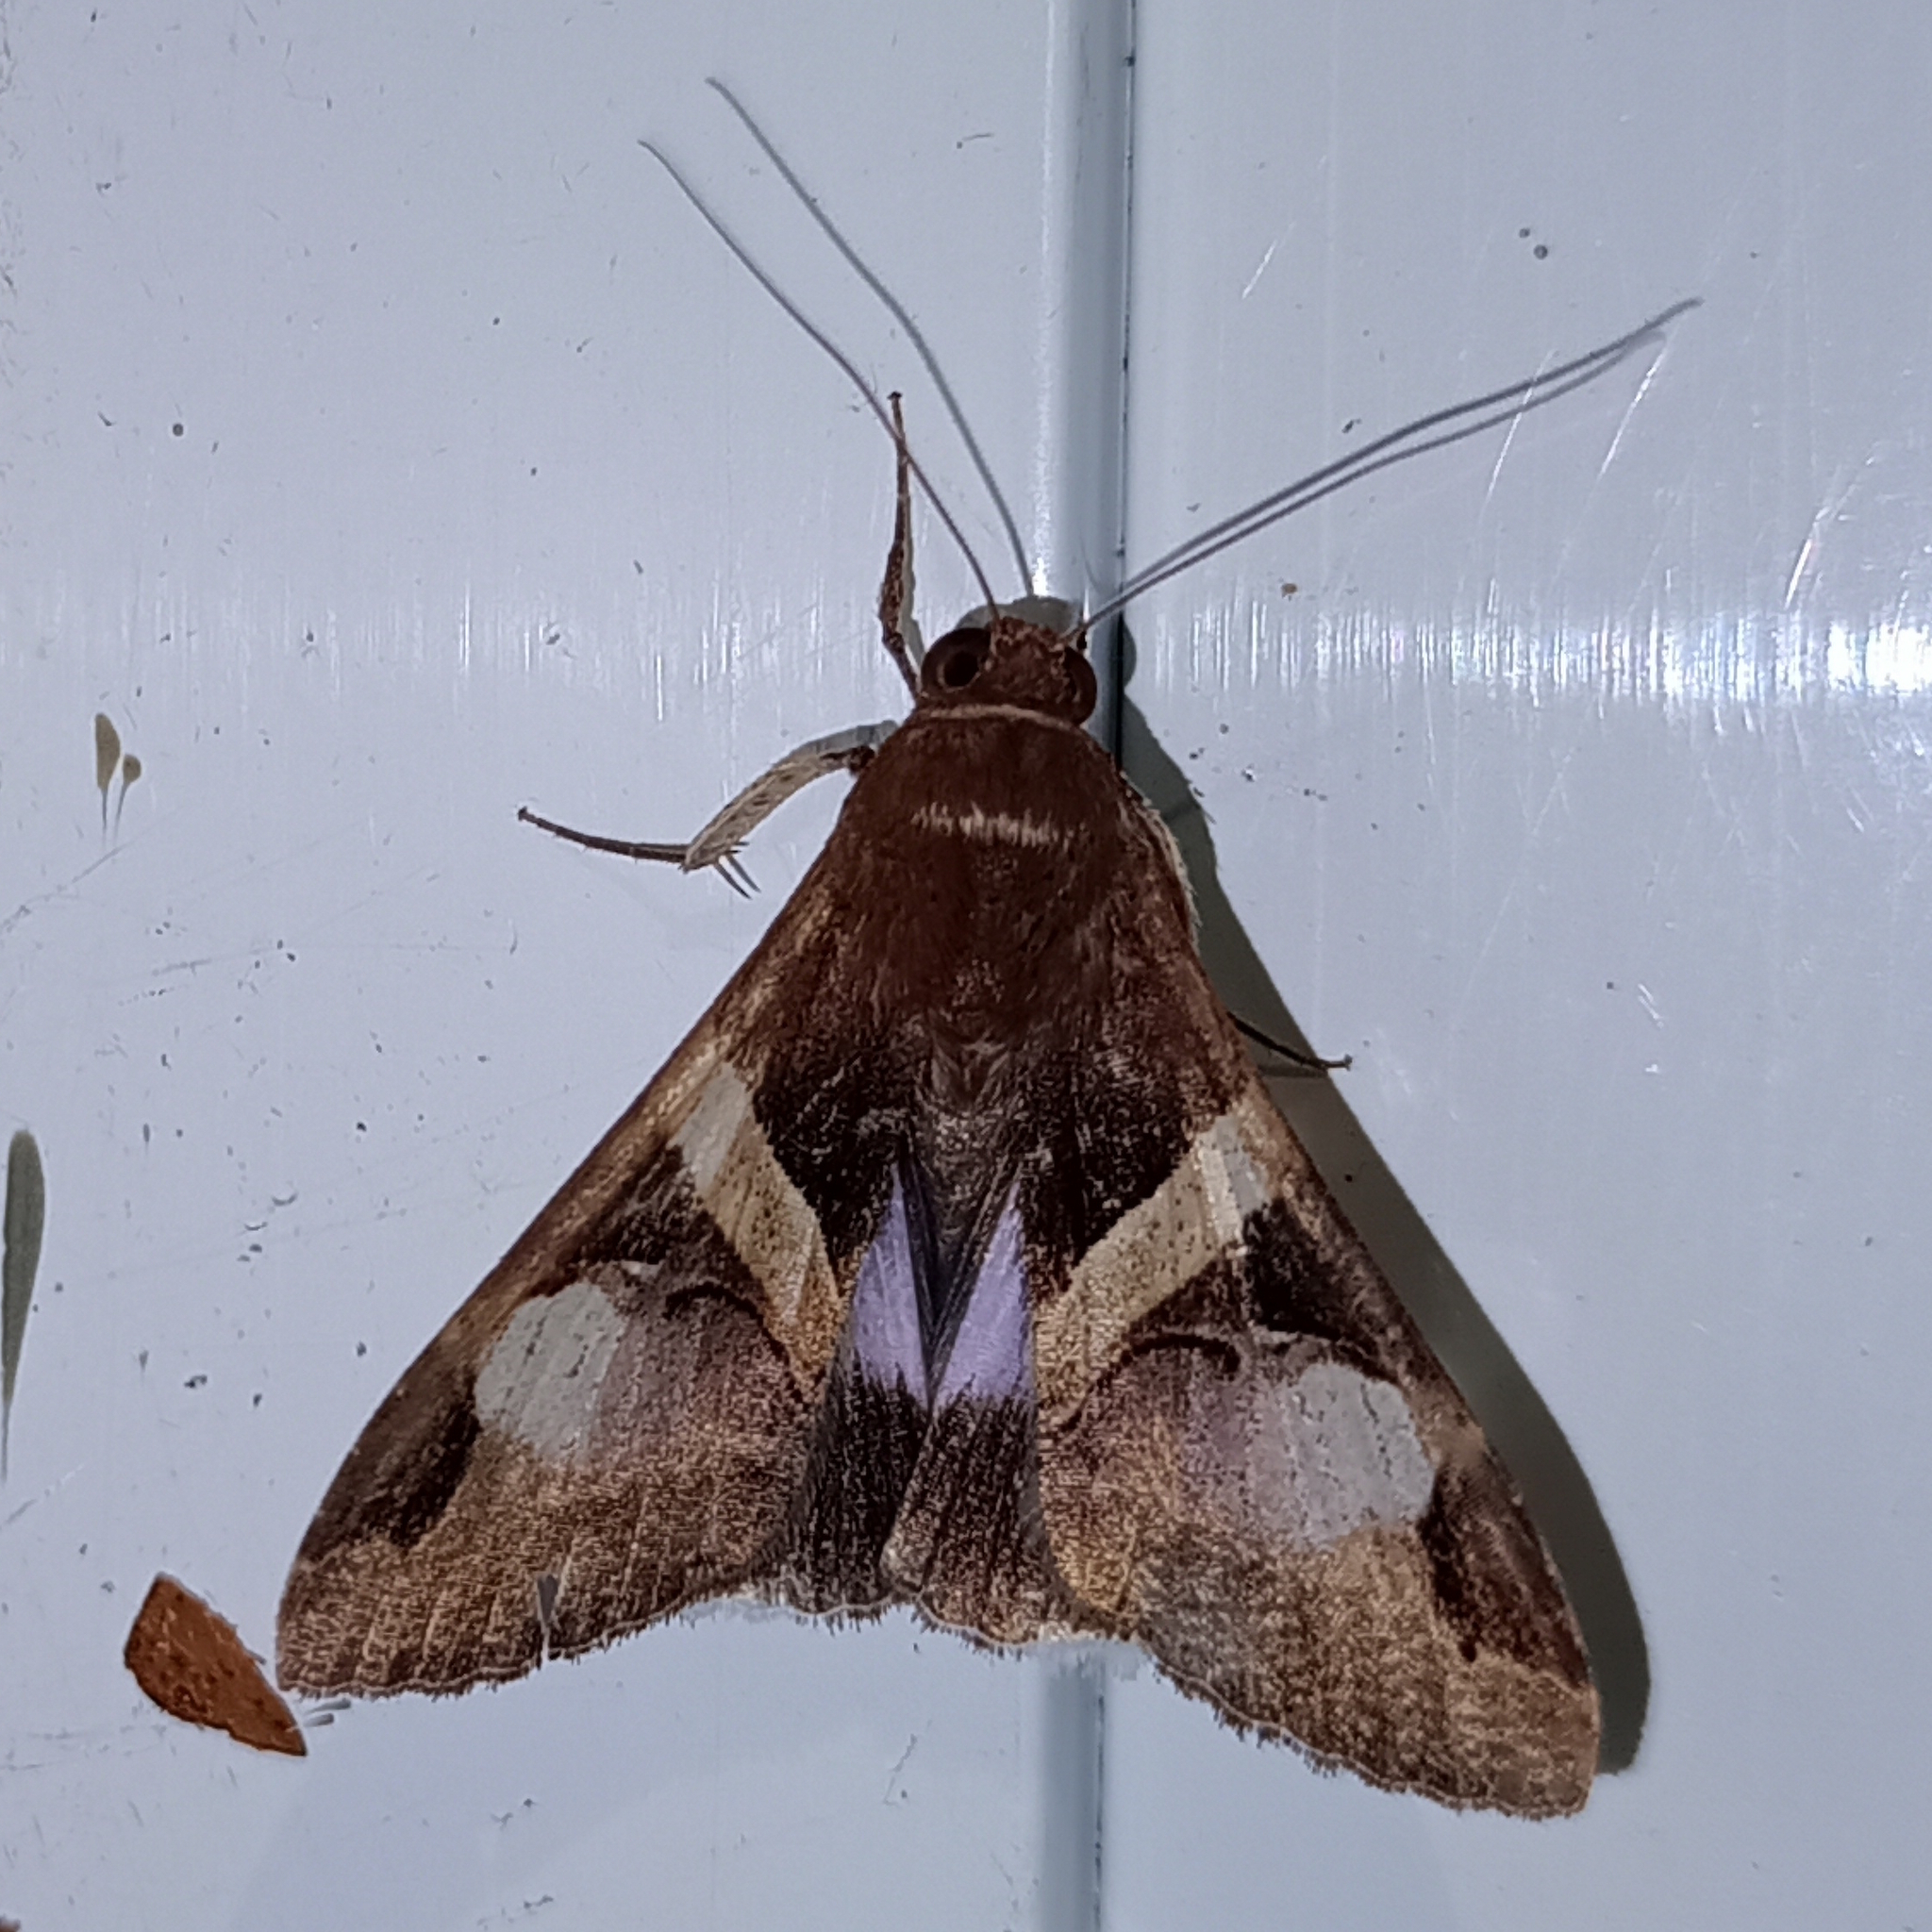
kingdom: Animalia
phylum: Arthropoda
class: Insecta
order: Lepidoptera
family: Erebidae
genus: Melipotis
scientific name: Melipotis fasciolaris
